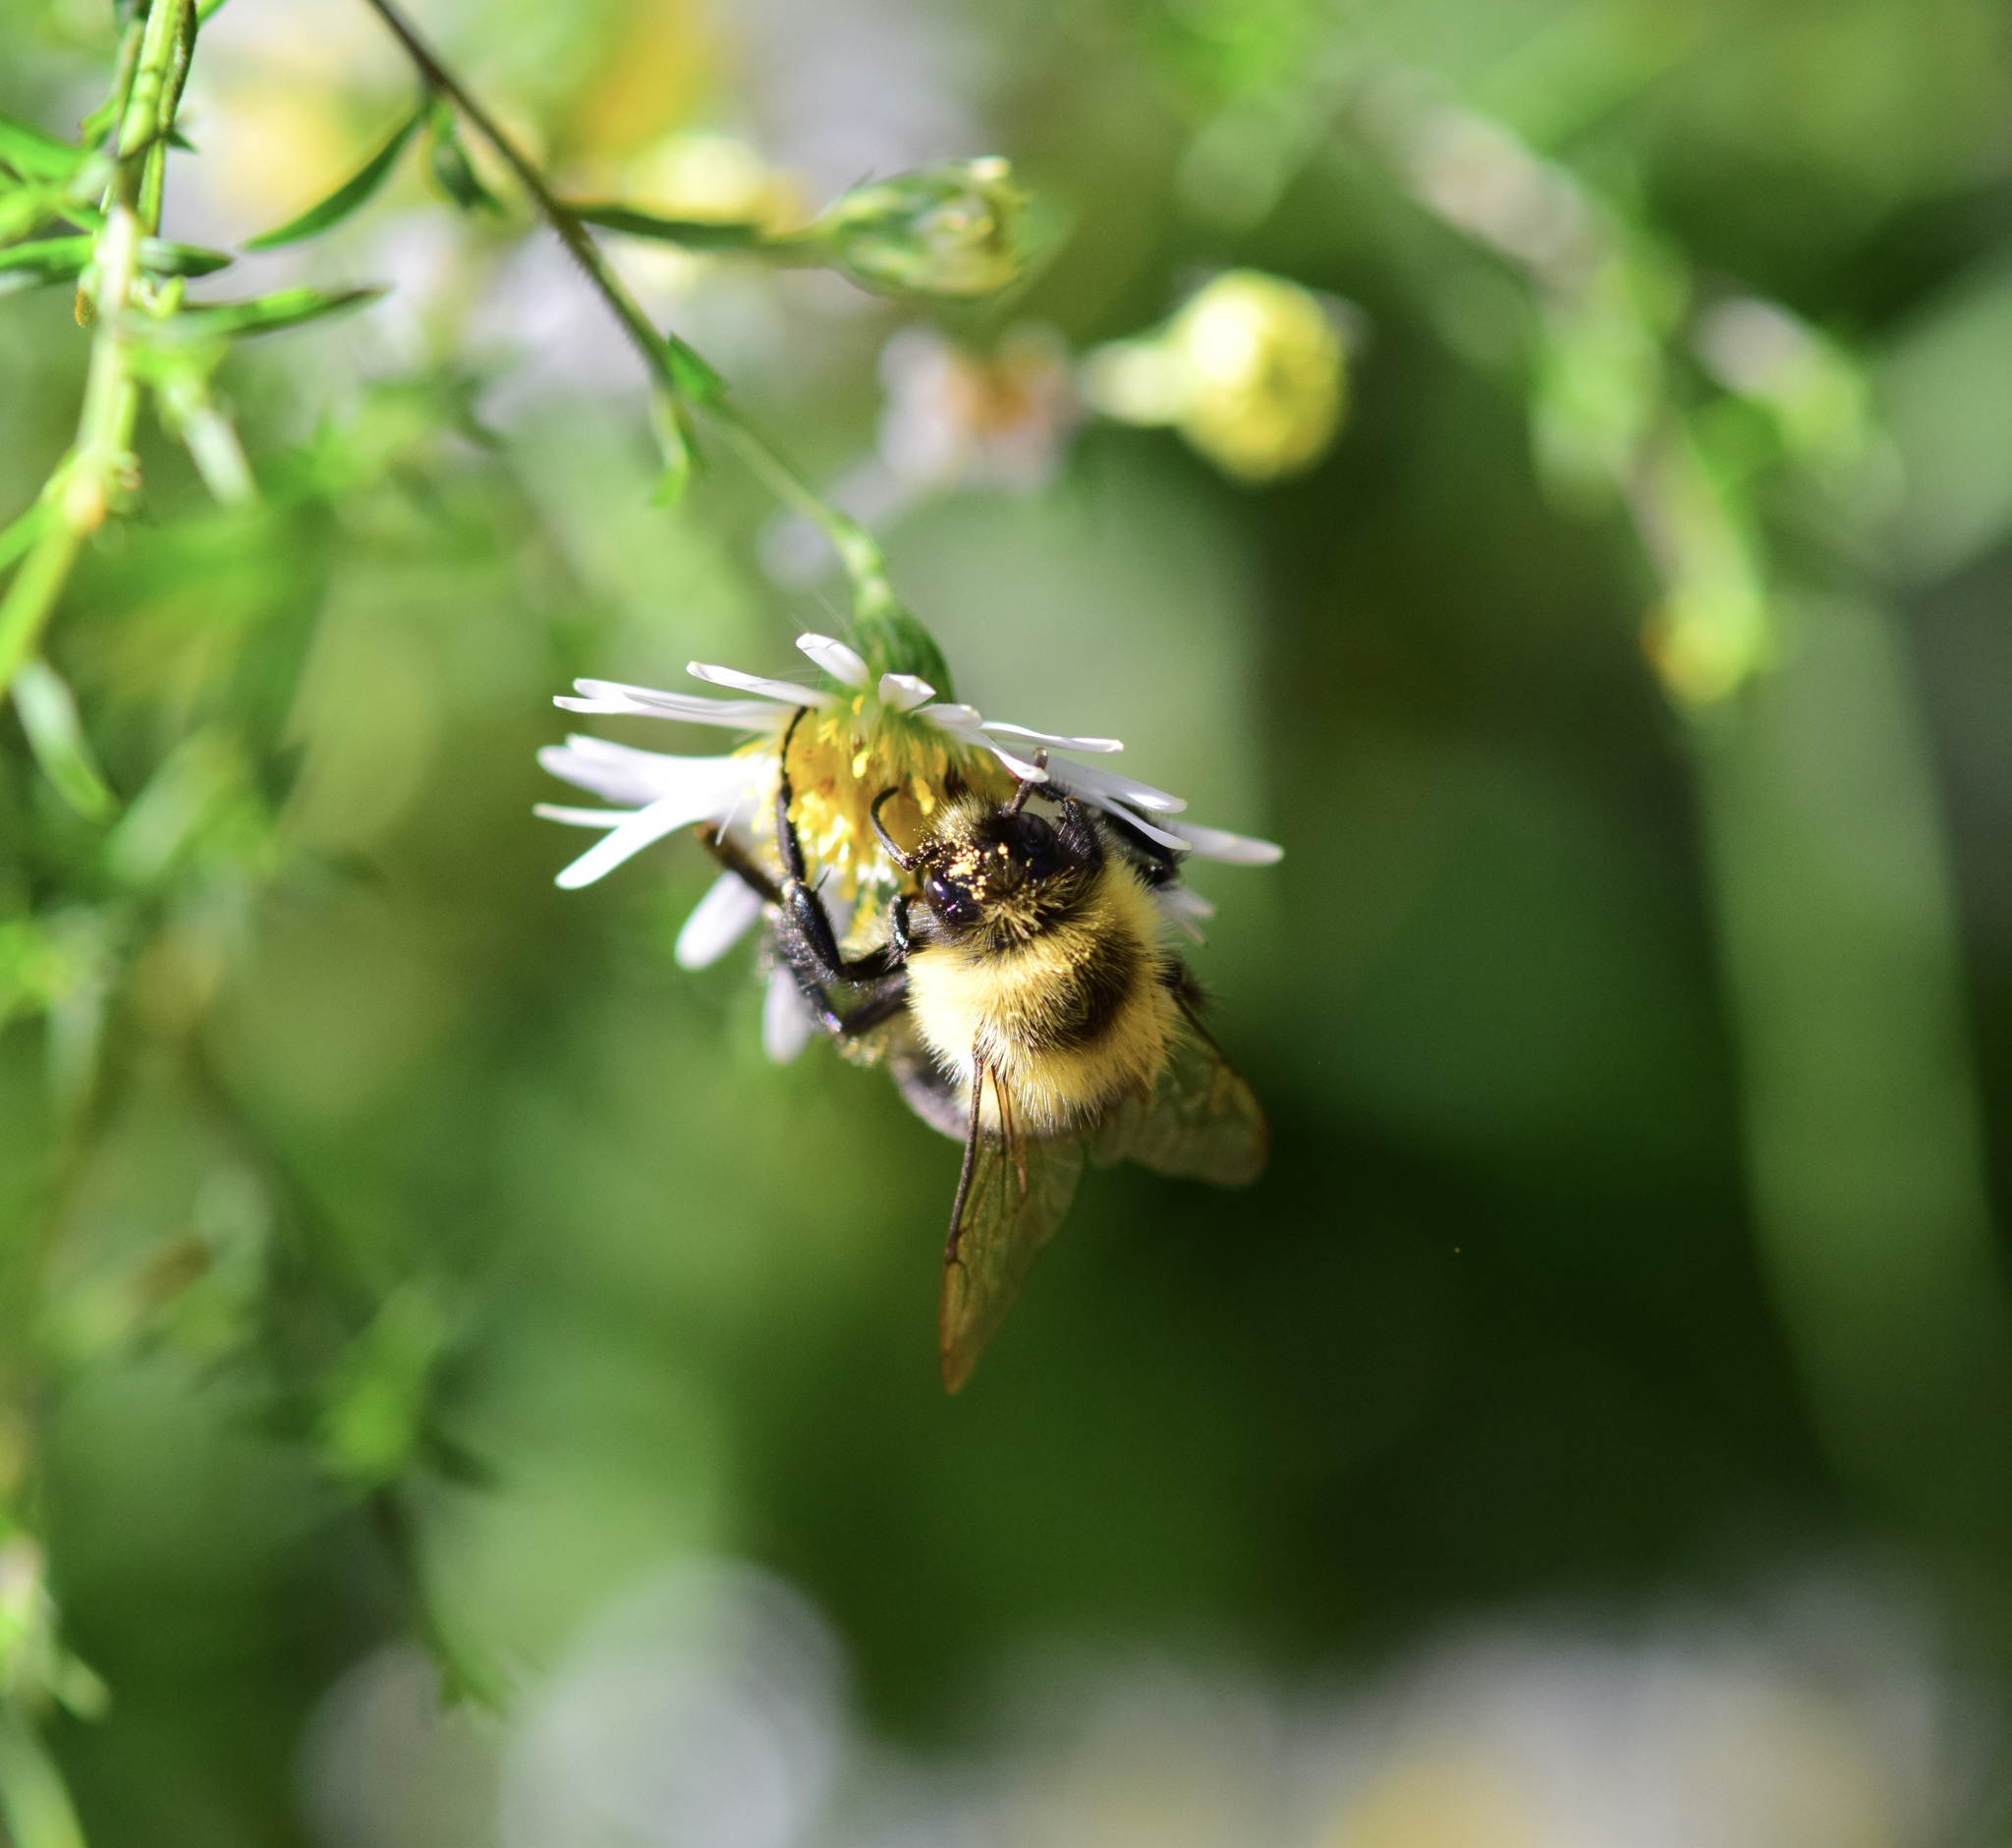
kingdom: Animalia
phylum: Arthropoda
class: Insecta
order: Hymenoptera
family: Apidae
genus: Bombus
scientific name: Bombus impatiens
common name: Common eastern bumble bee
